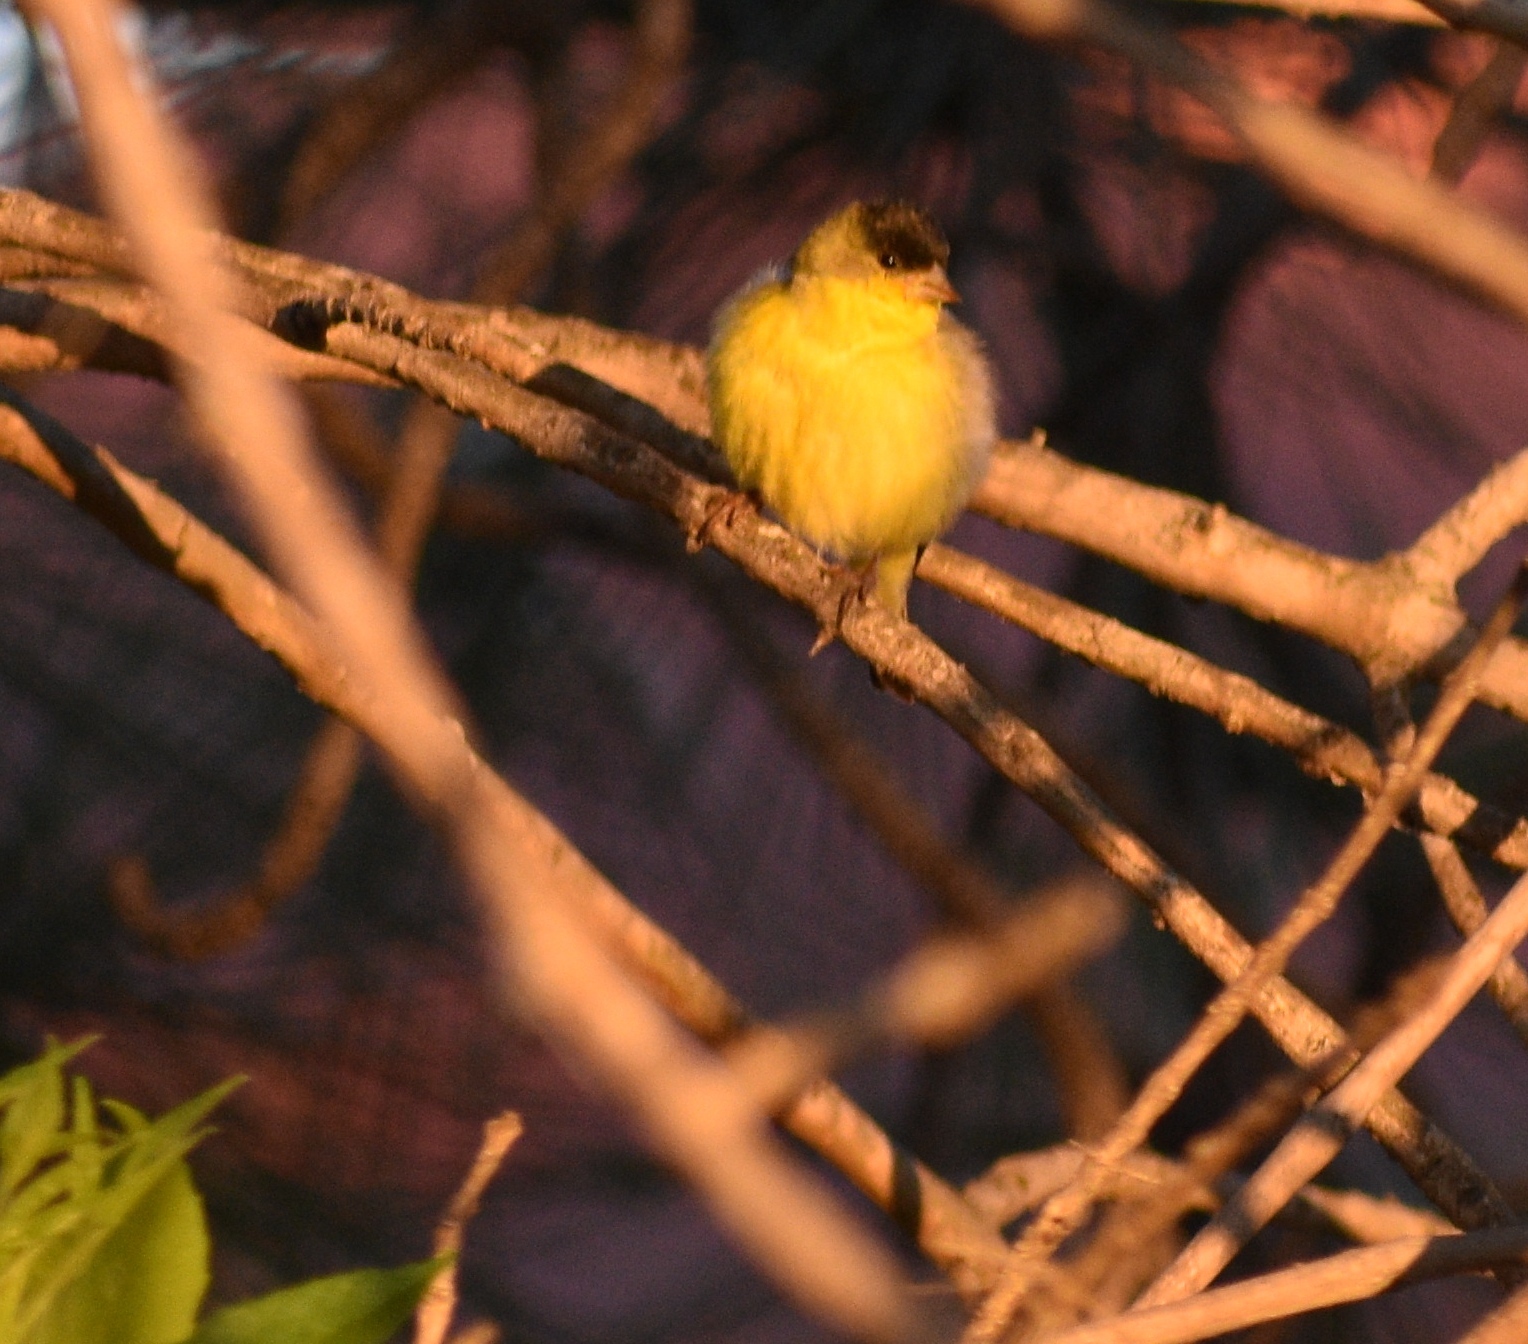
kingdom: Animalia
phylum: Chordata
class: Aves
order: Passeriformes
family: Fringillidae
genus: Spinus
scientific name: Spinus psaltria
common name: Lesser goldfinch
